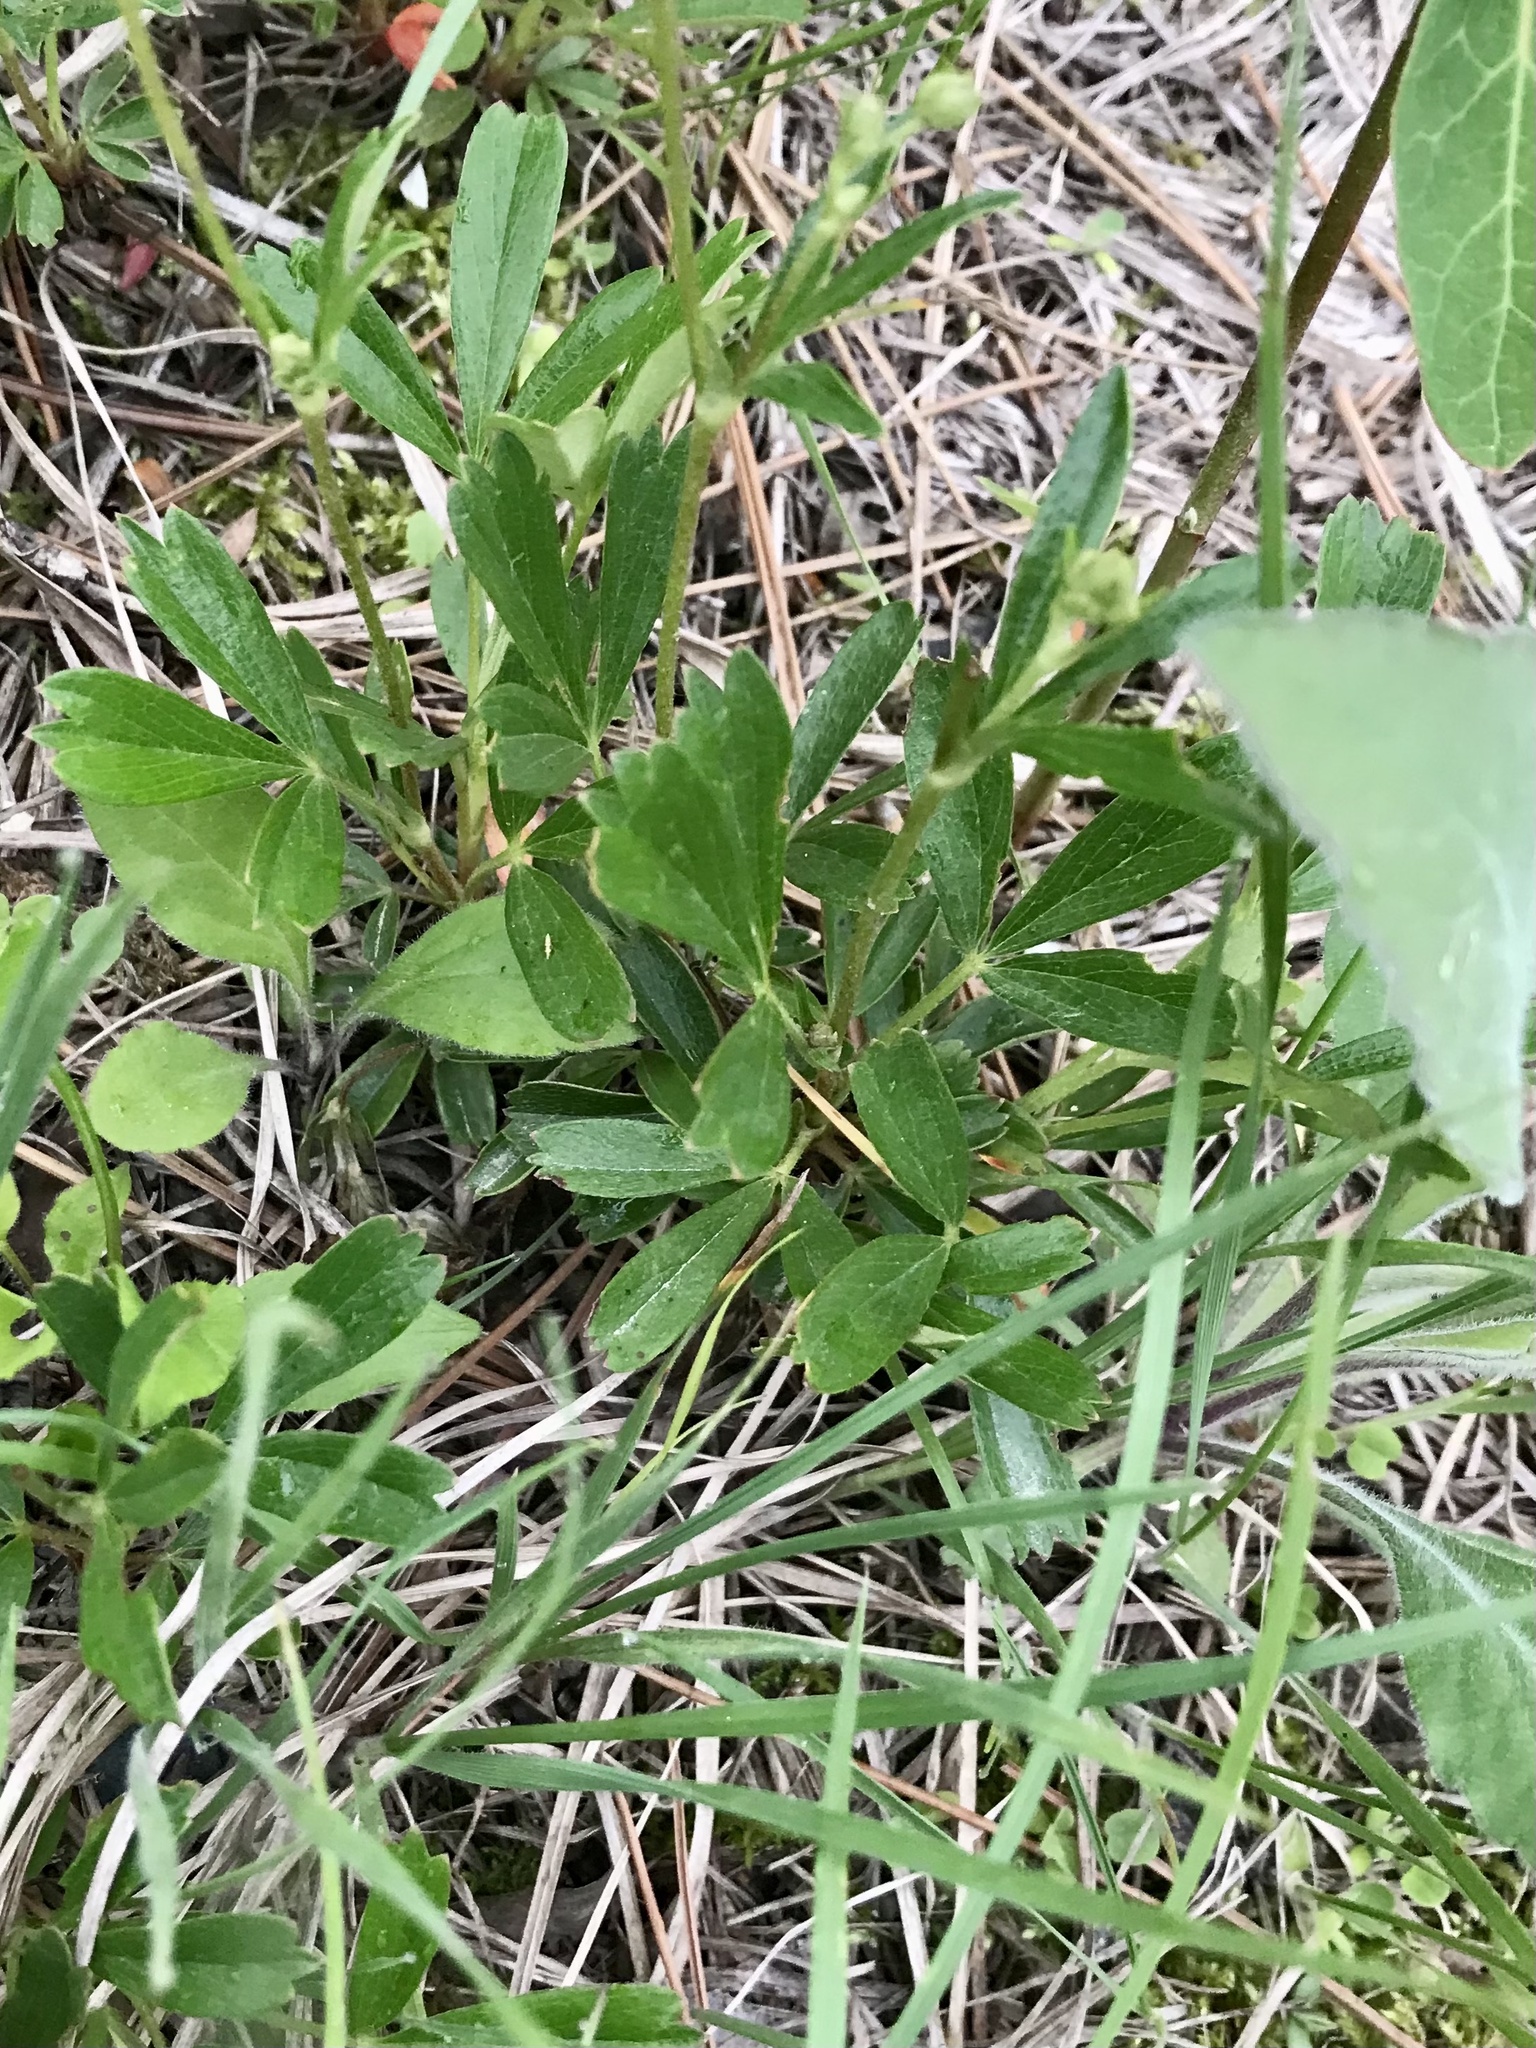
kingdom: Plantae
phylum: Tracheophyta
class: Magnoliopsida
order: Rosales
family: Rosaceae
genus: Sibbaldia
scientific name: Sibbaldia tridentata
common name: Three-toothed cinquefoil
